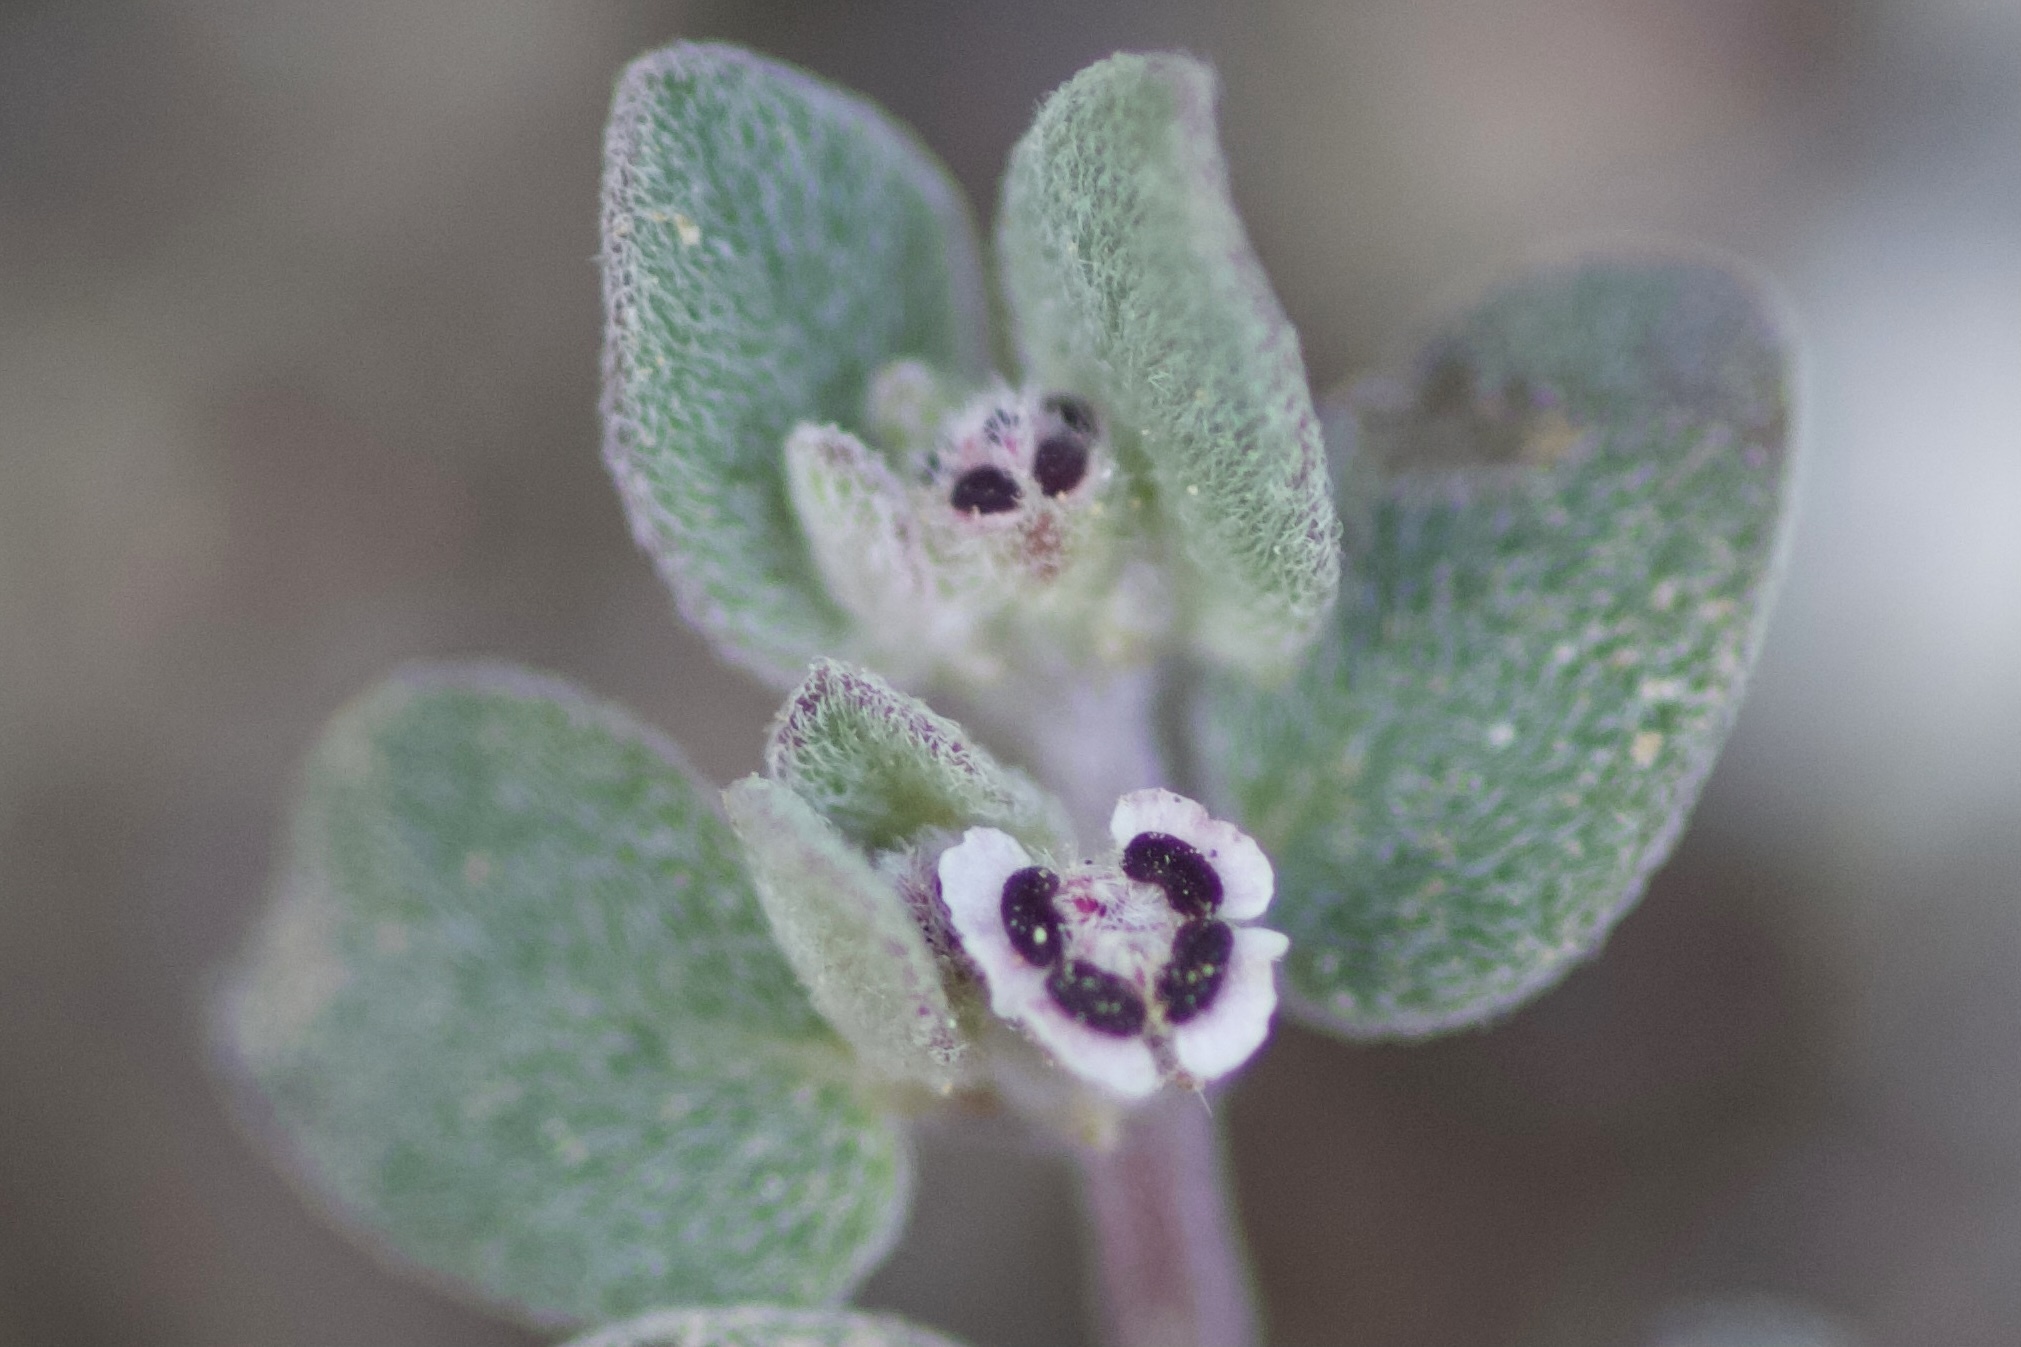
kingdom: Plantae
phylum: Tracheophyta
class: Magnoliopsida
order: Malpighiales
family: Euphorbiaceae
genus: Euphorbia
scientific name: Euphorbia melanadenia
